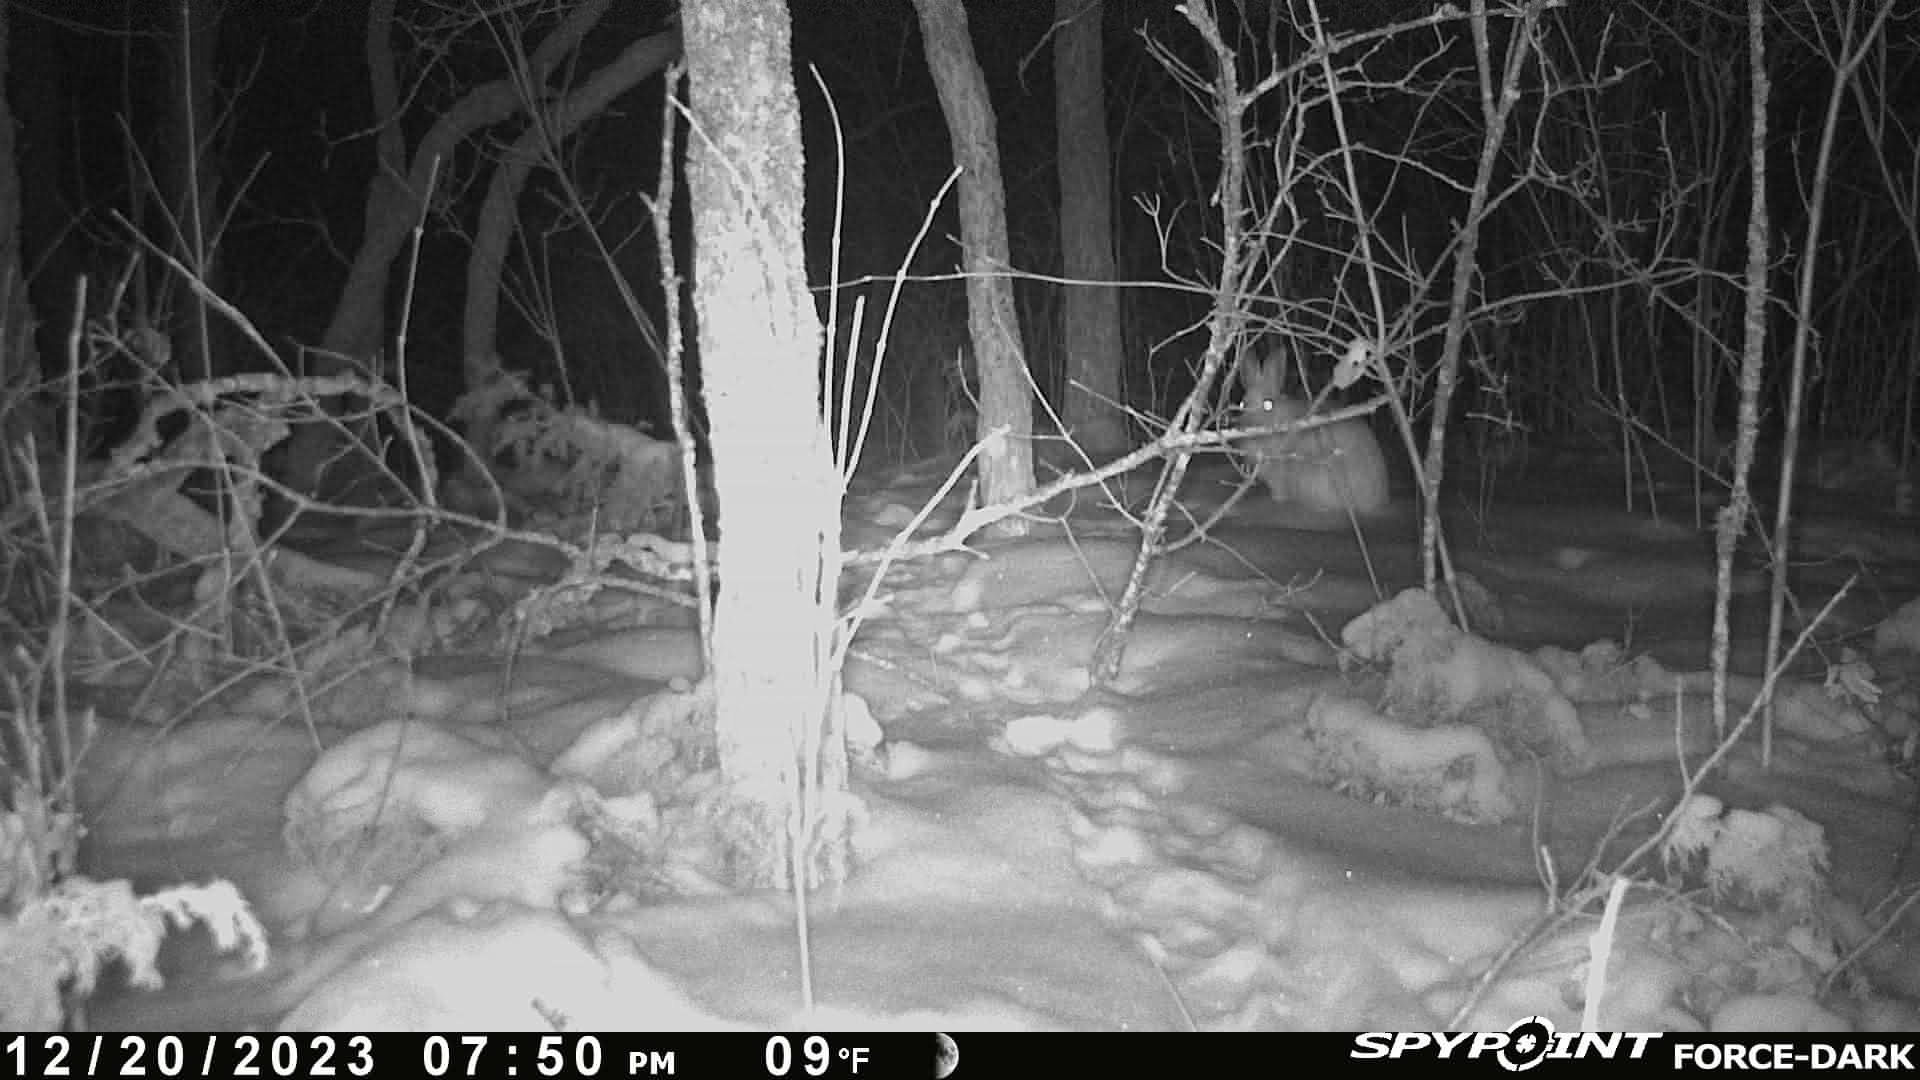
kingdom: Animalia
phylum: Chordata
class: Mammalia
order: Lagomorpha
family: Leporidae
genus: Lepus
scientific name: Lepus americanus
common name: Snowshoe hare
